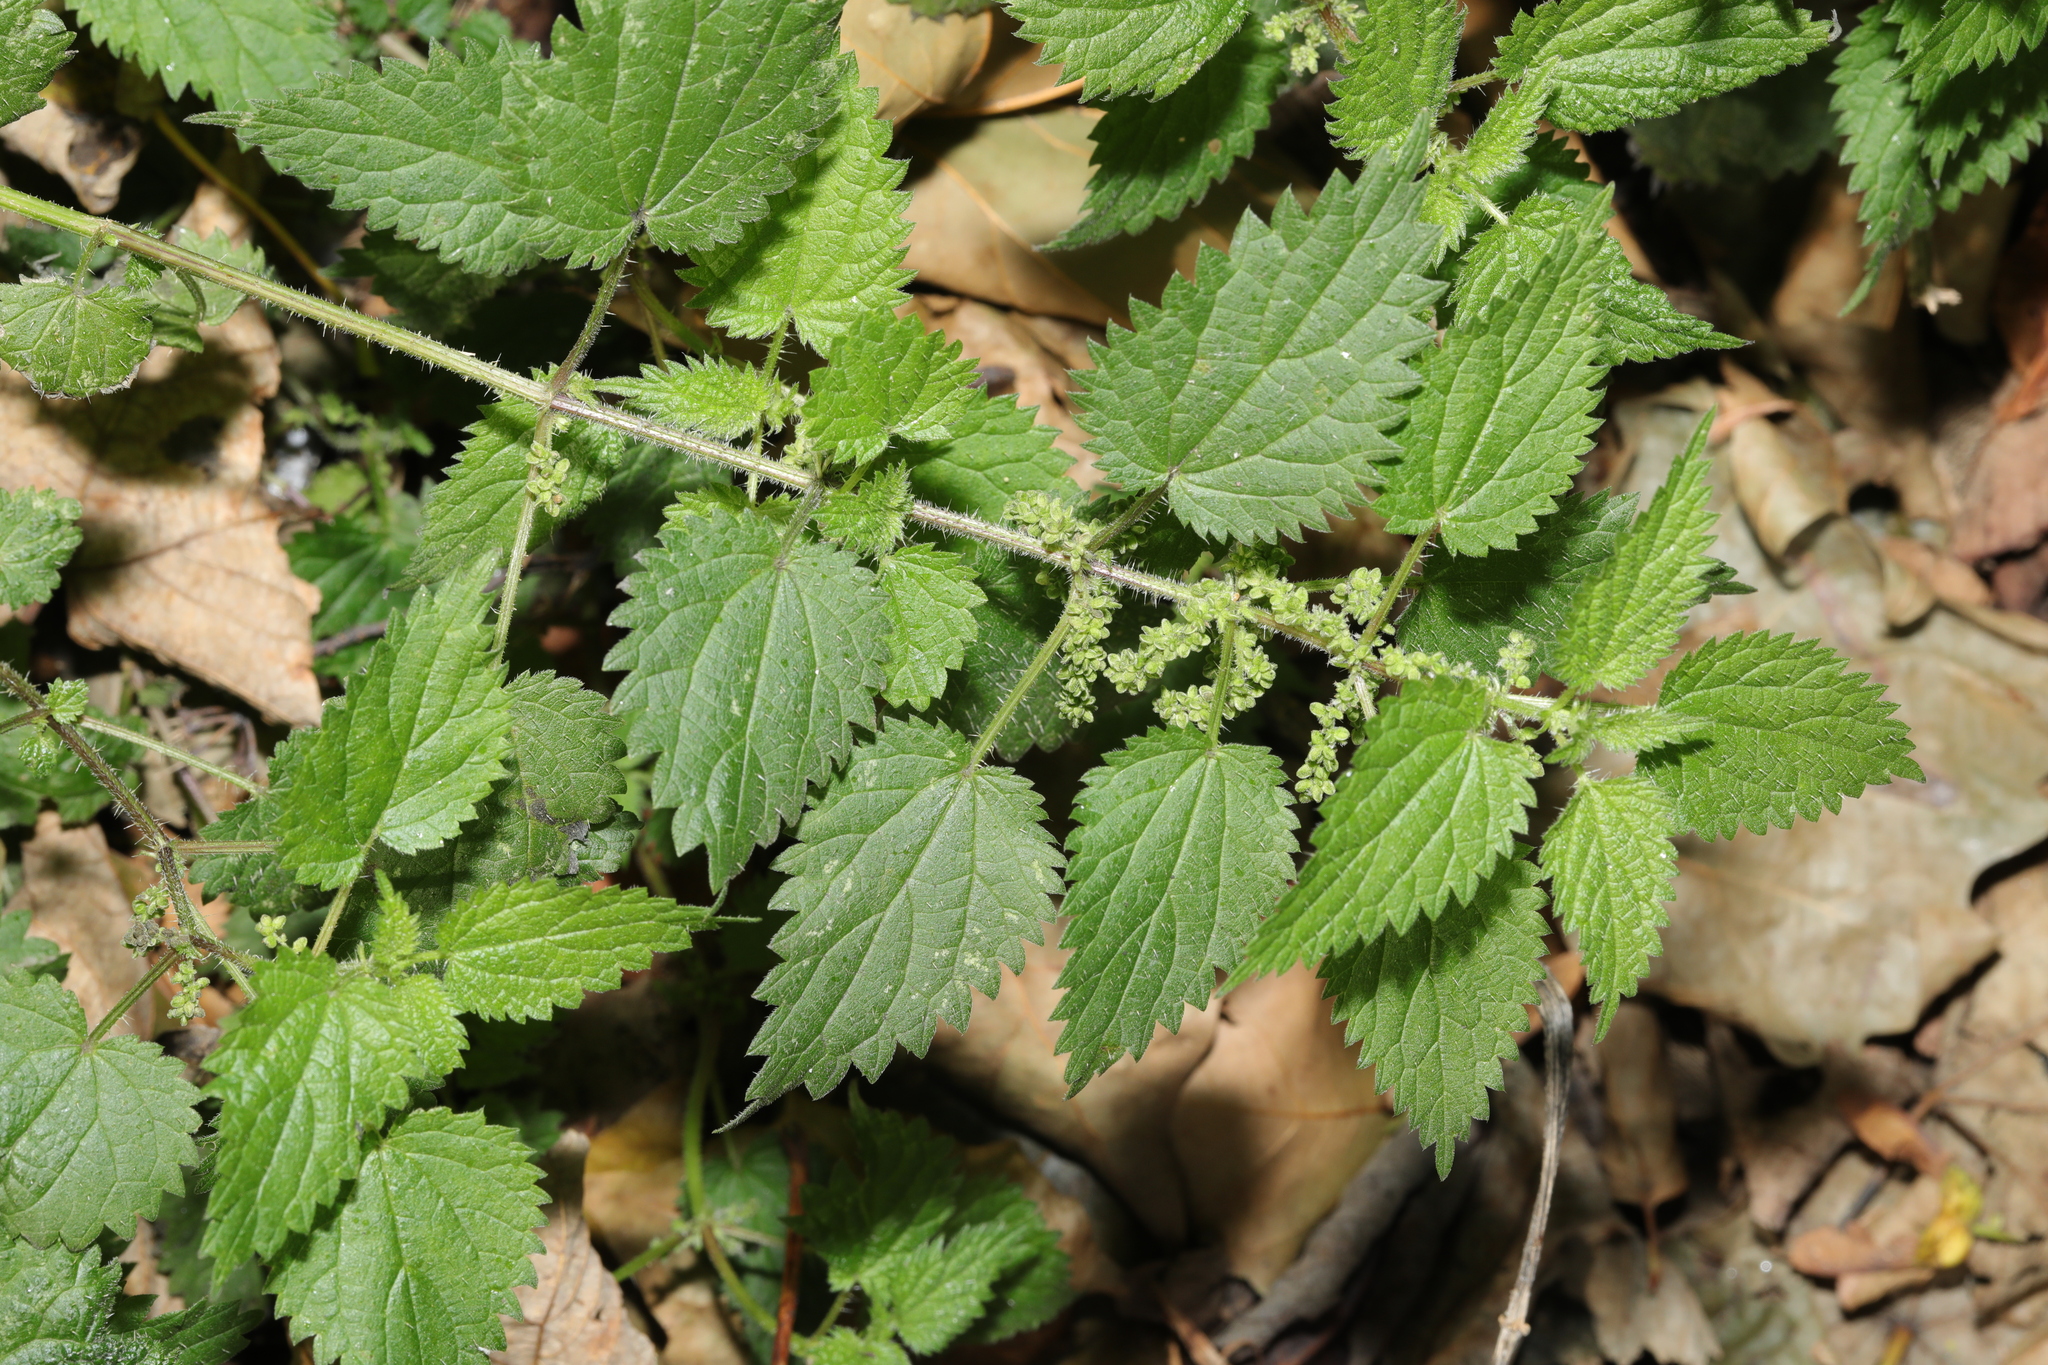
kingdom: Plantae
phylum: Tracheophyta
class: Magnoliopsida
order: Rosales
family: Urticaceae
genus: Urtica
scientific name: Urtica dioica
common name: Common nettle
